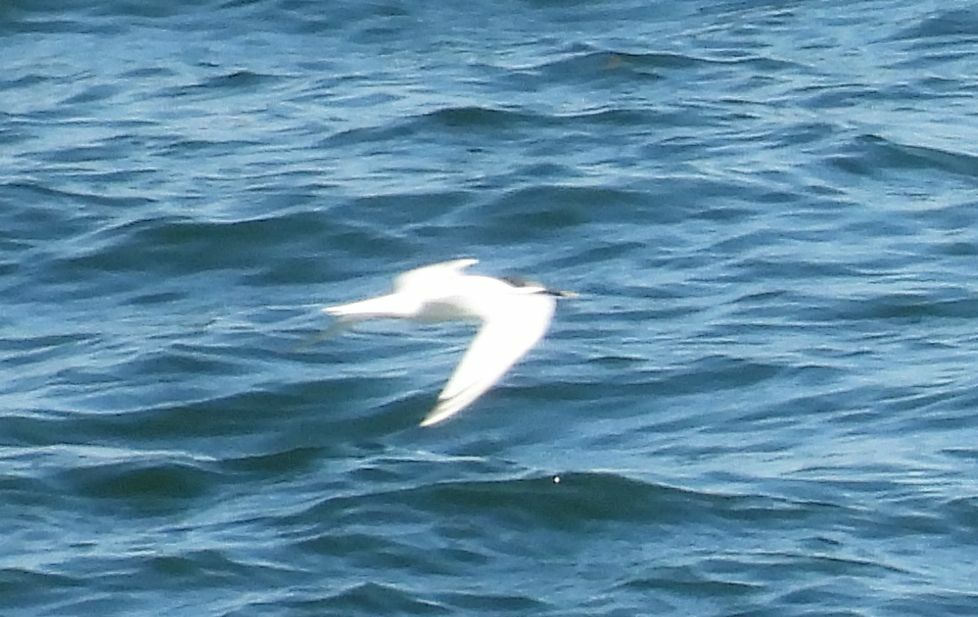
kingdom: Animalia
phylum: Chordata
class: Aves
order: Charadriiformes
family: Laridae
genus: Thalasseus
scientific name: Thalasseus sandvicensis
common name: Sandwich tern
